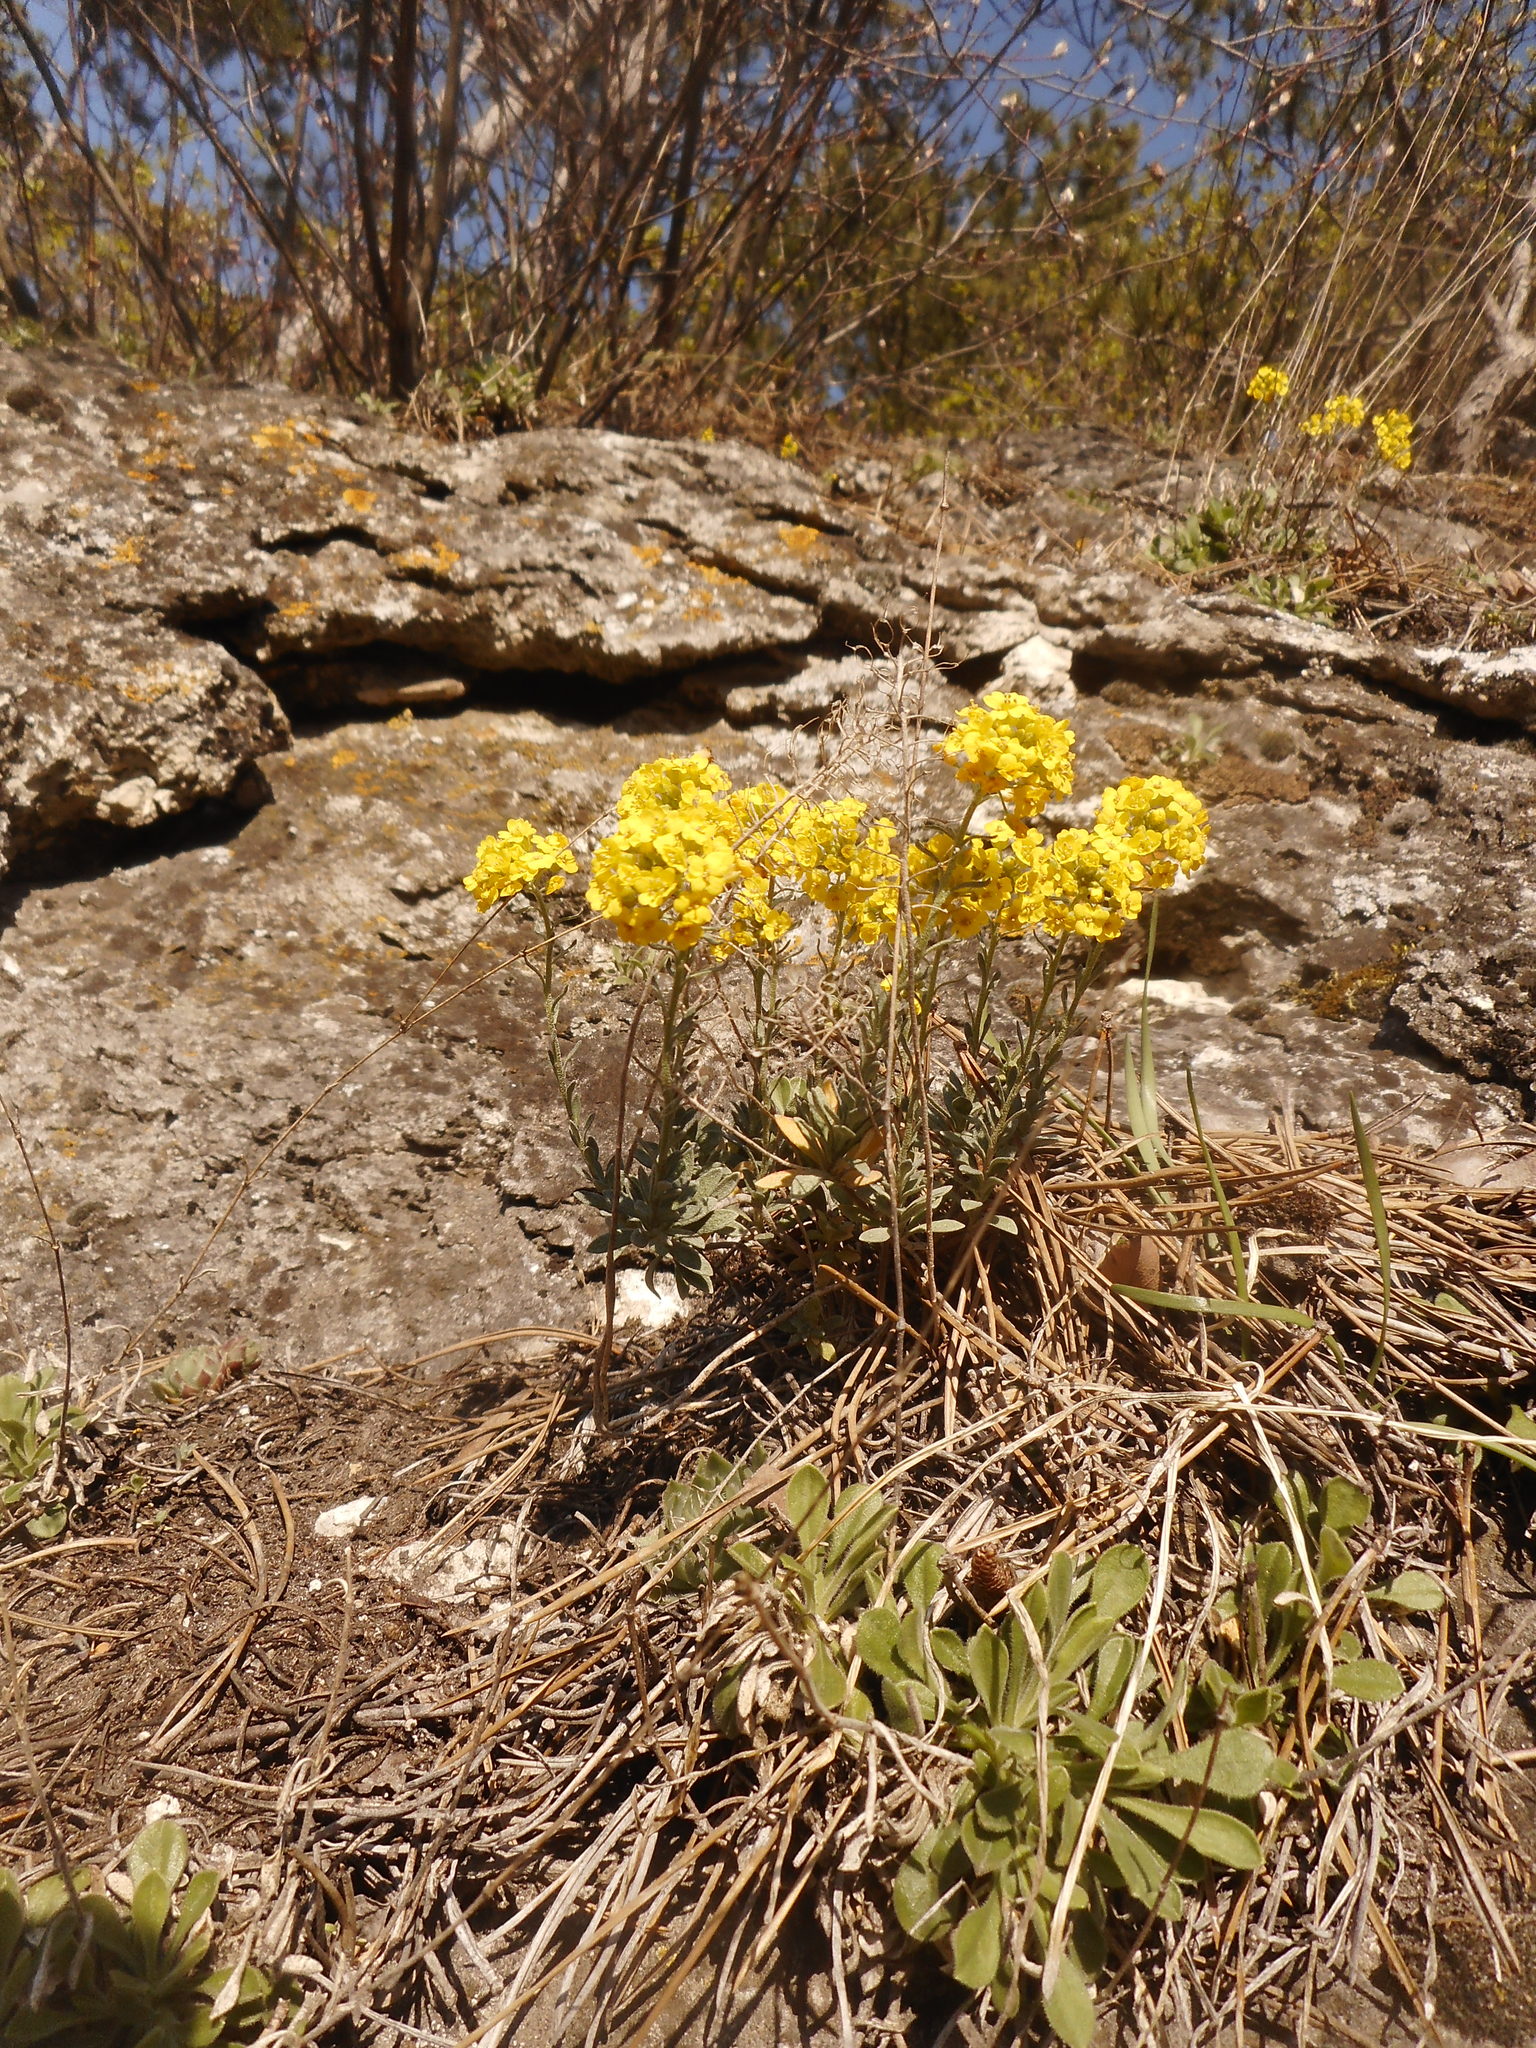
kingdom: Plantae
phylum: Tracheophyta
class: Magnoliopsida
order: Brassicales
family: Brassicaceae
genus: Alyssum
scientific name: Alyssum gmelinii
